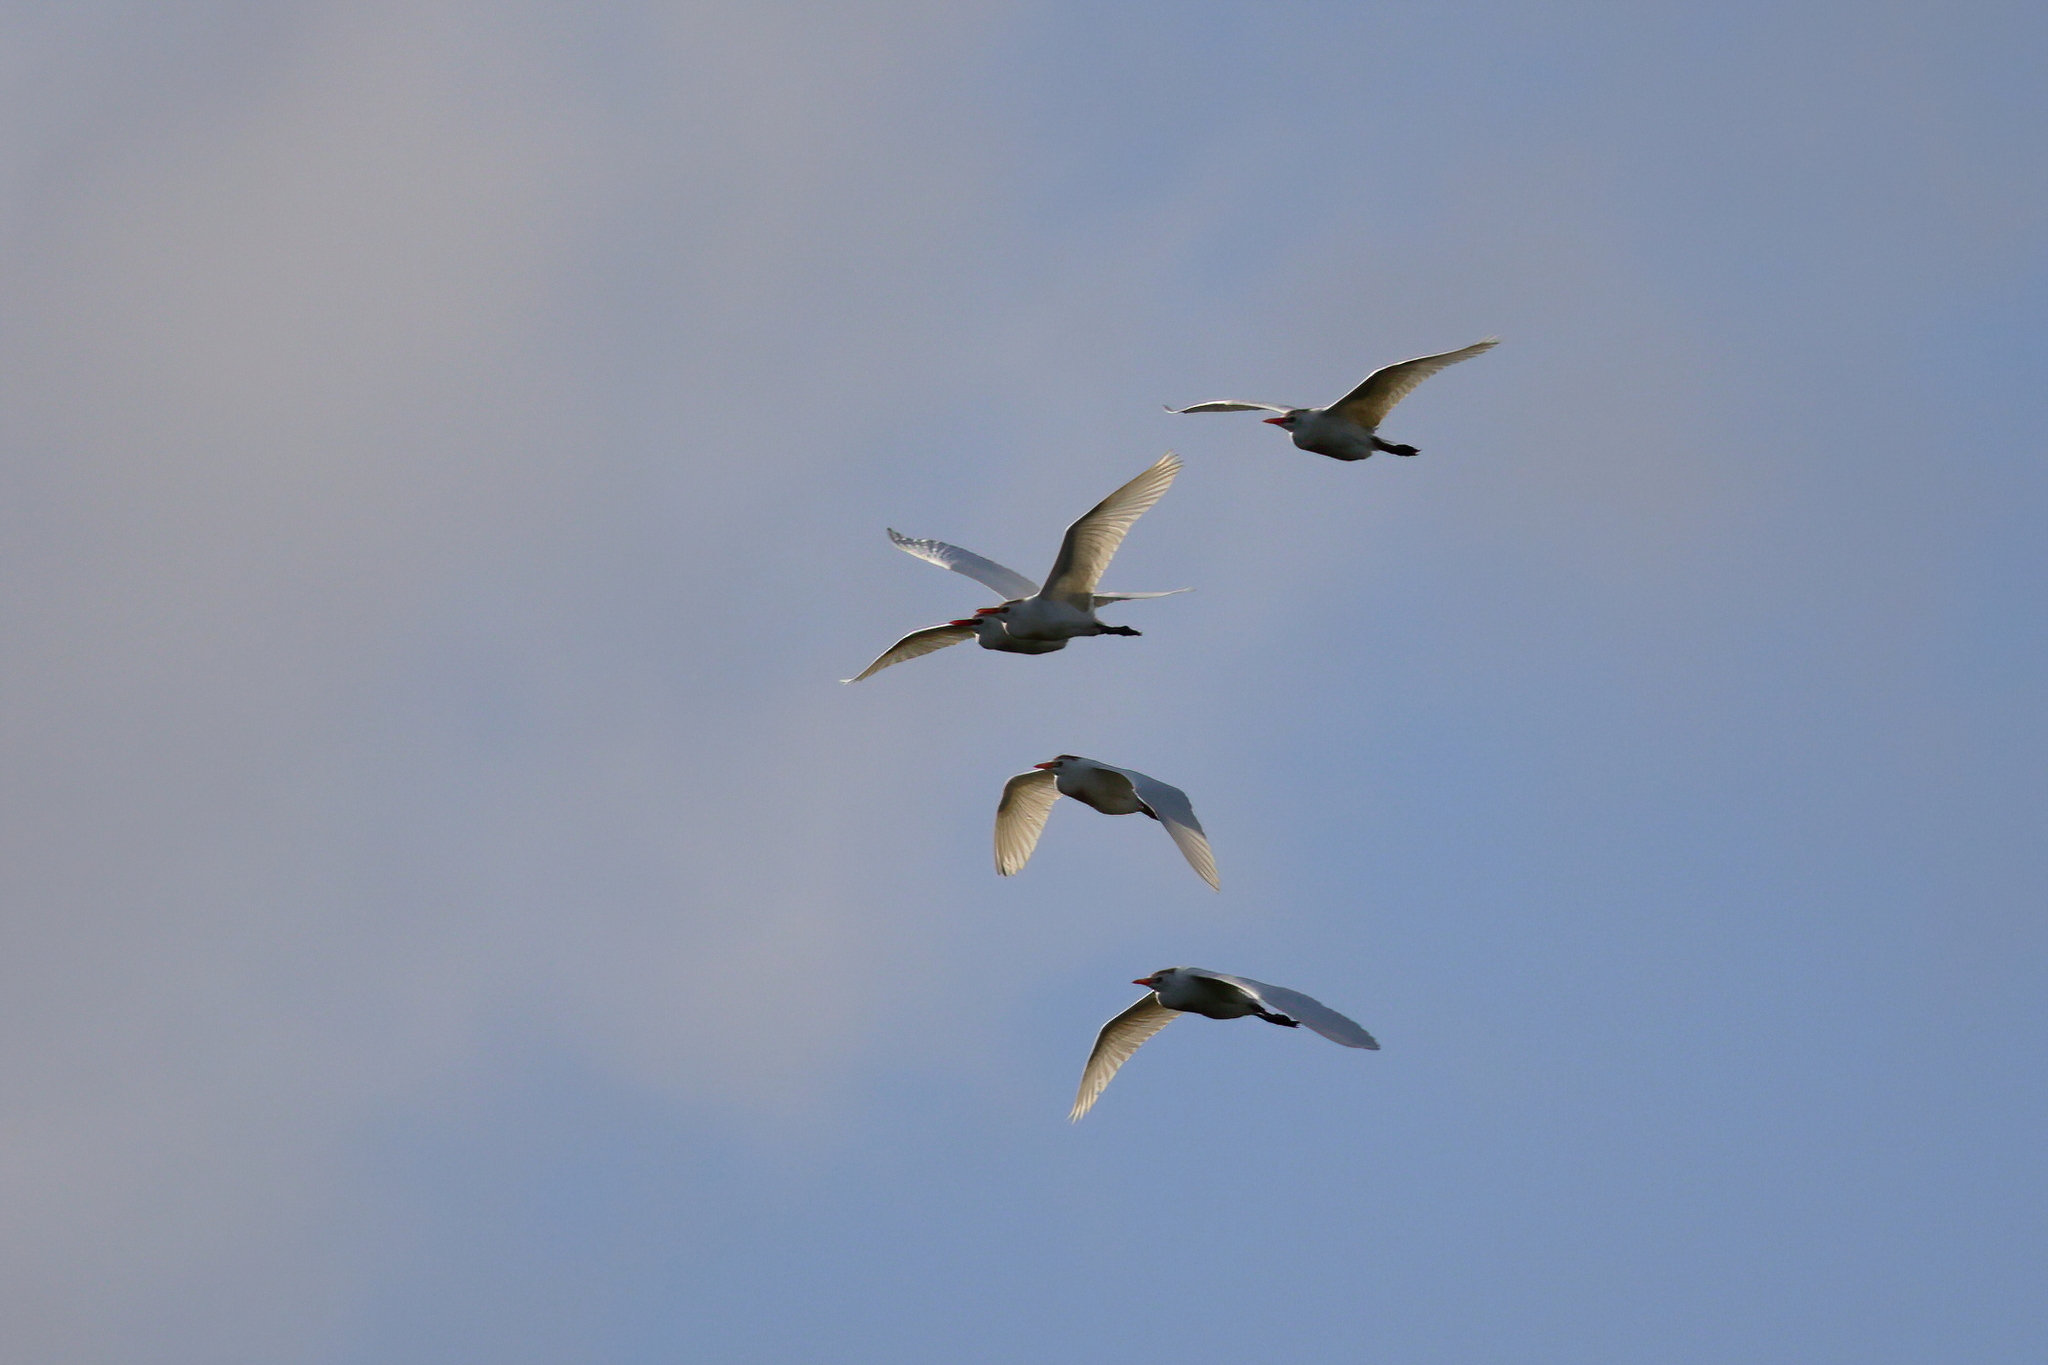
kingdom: Animalia
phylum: Chordata
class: Aves
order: Pelecaniformes
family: Ardeidae
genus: Bubulcus
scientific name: Bubulcus ibis
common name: Cattle egret
